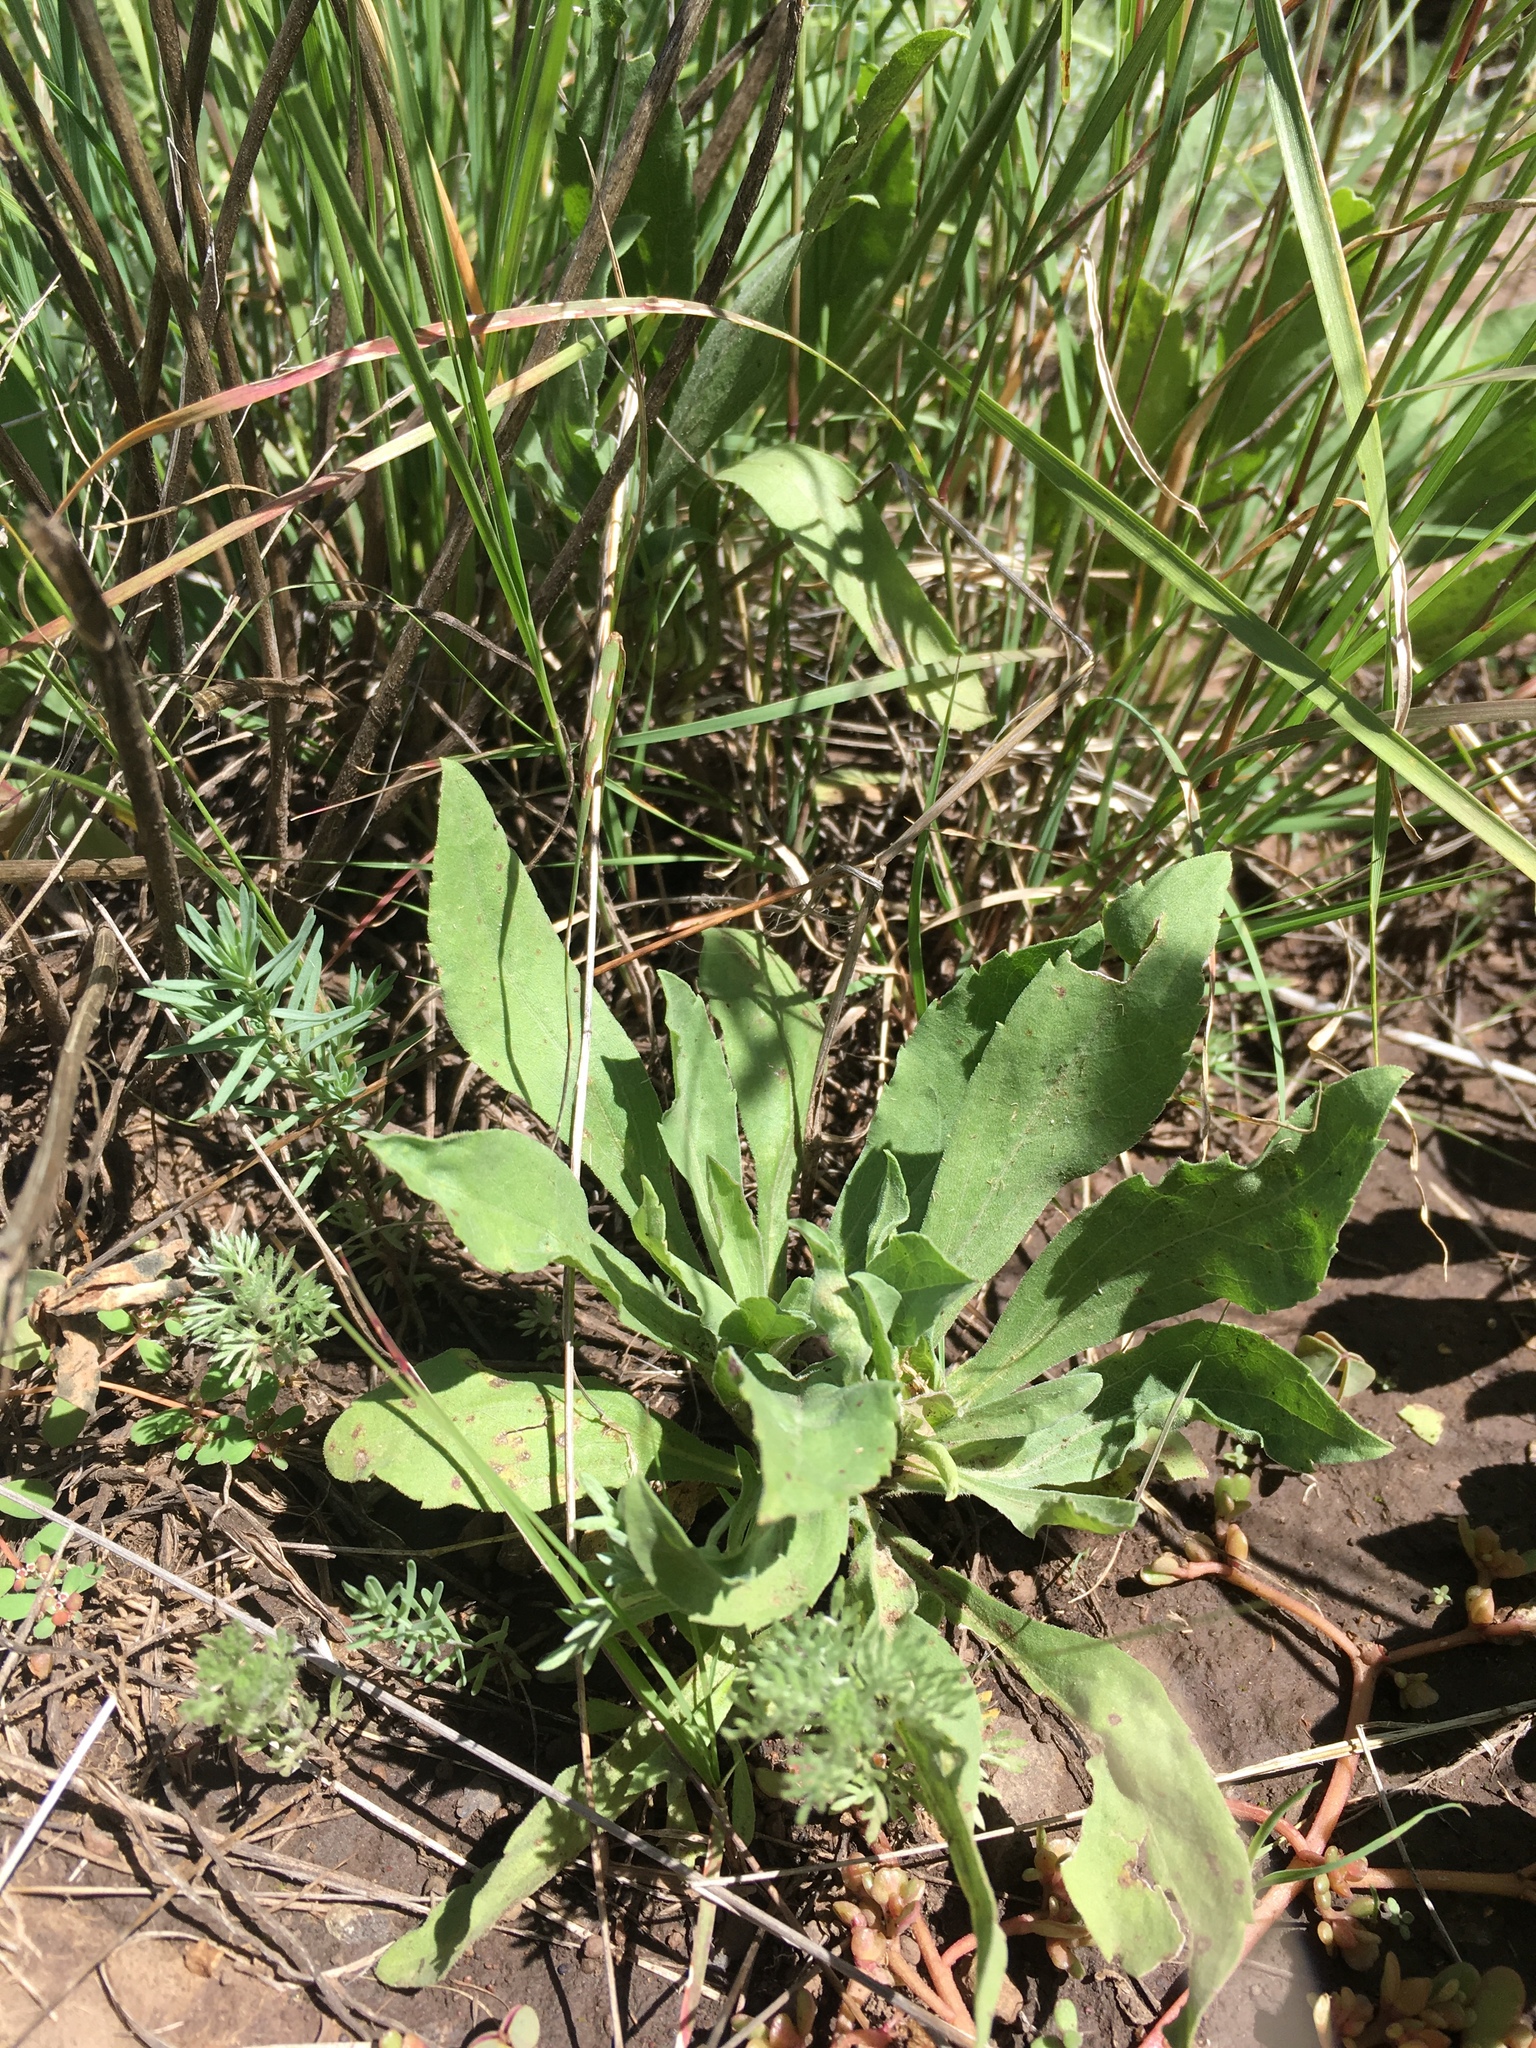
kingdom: Plantae
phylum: Tracheophyta
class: Magnoliopsida
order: Asterales
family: Asteraceae
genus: Solidago
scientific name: Solidago velutina
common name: Three-nerve goldenrod
